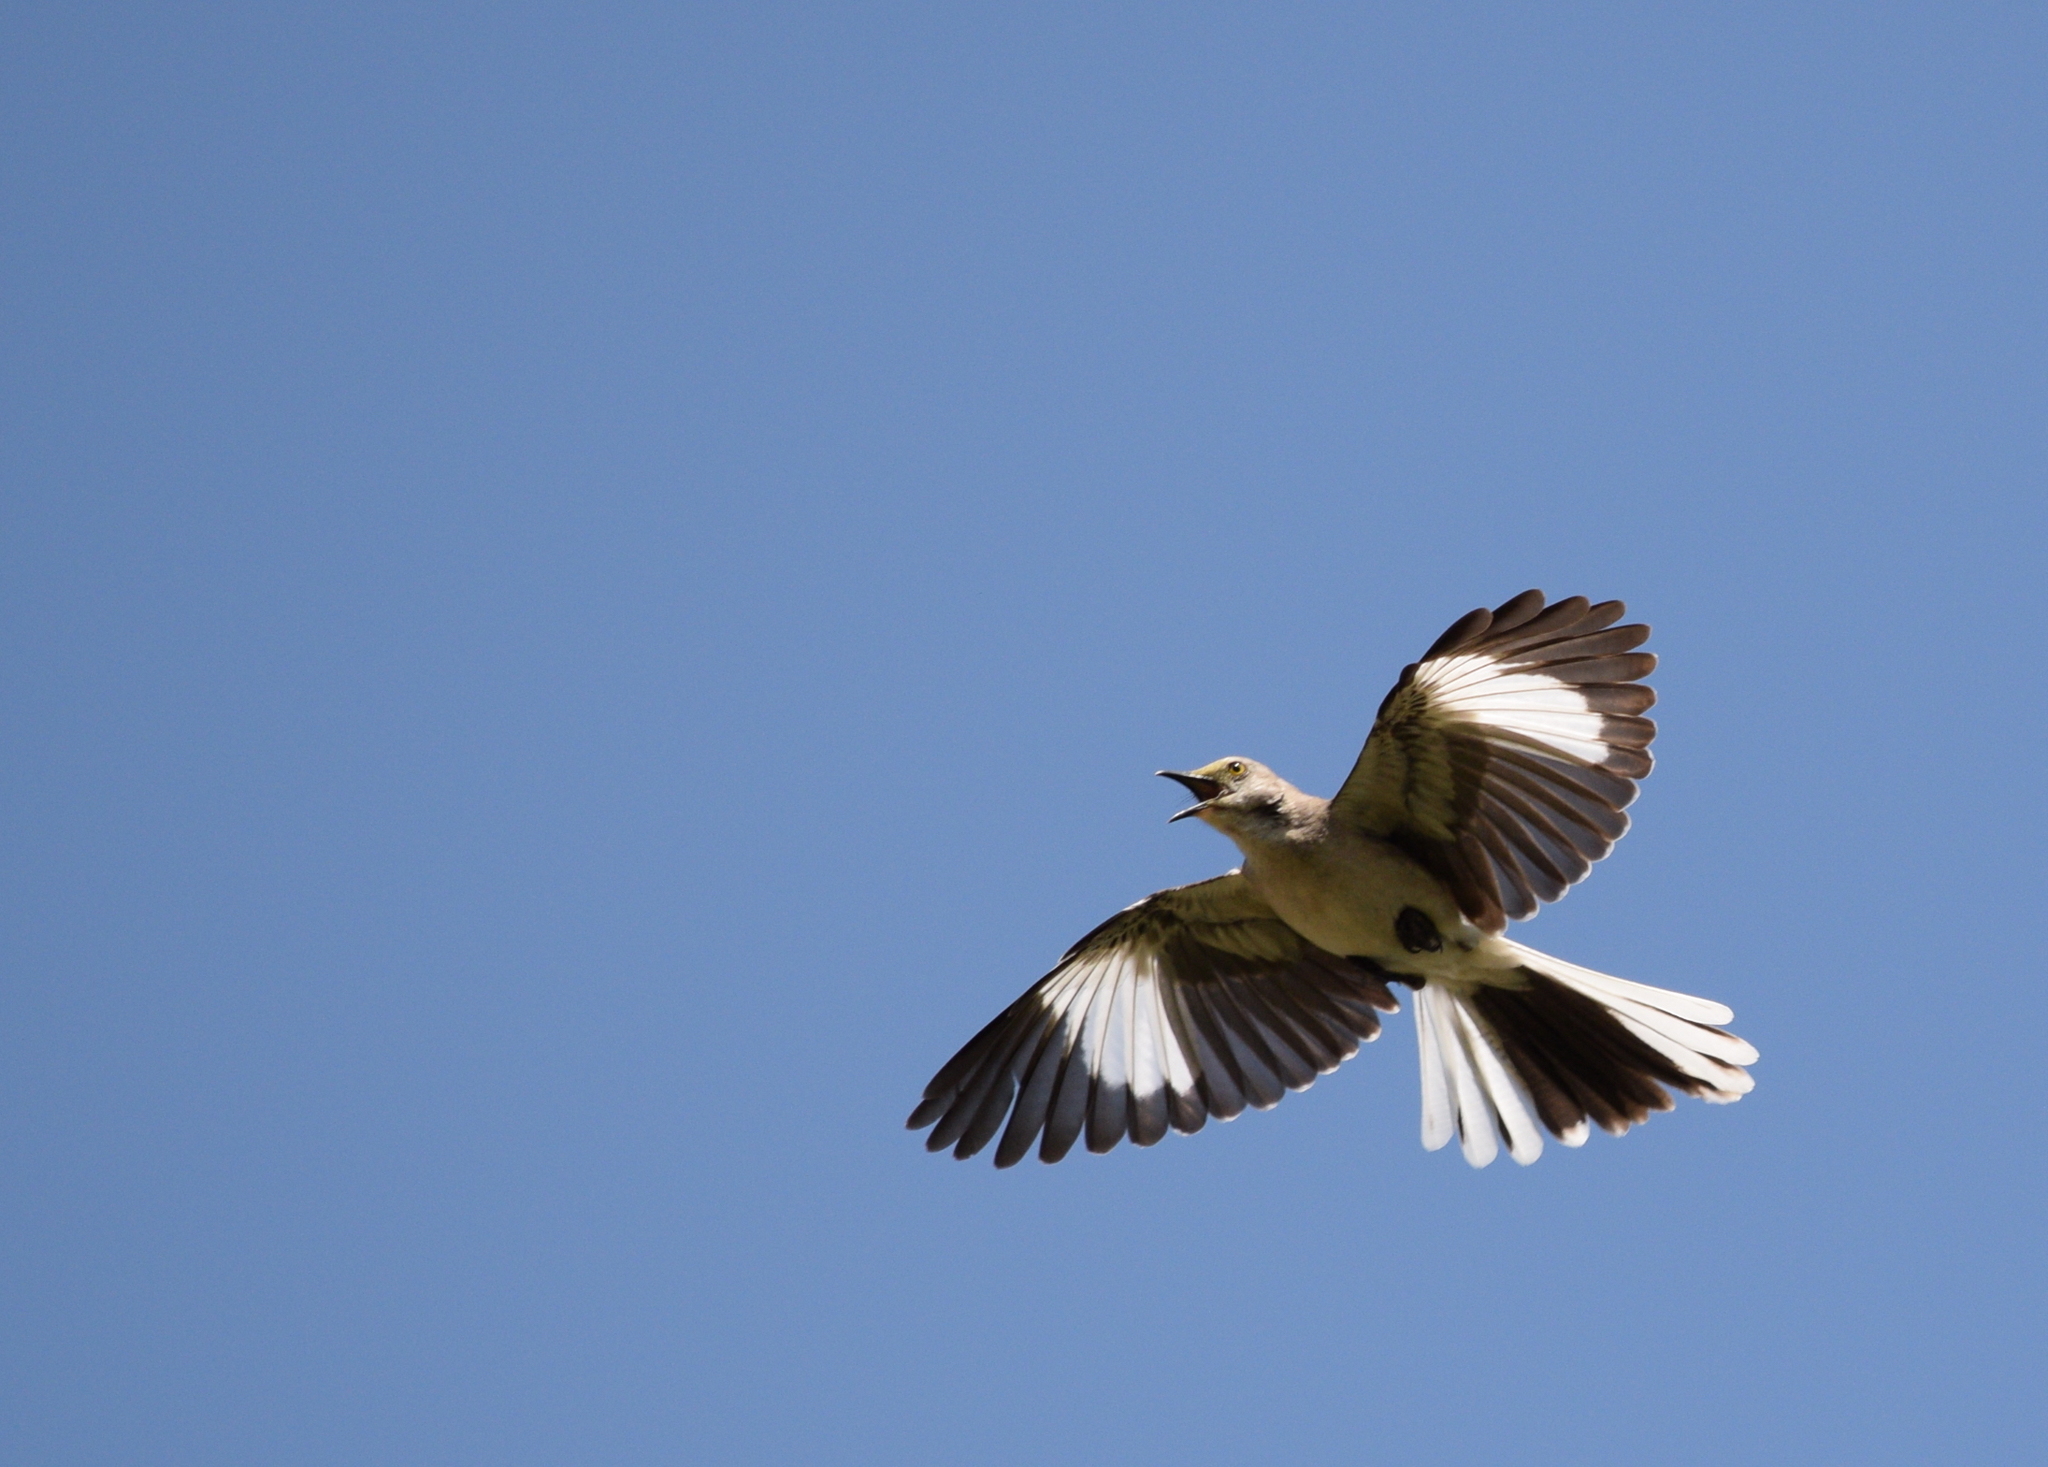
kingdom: Animalia
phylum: Chordata
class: Aves
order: Passeriformes
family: Mimidae
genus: Mimus
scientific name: Mimus polyglottos
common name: Northern mockingbird
